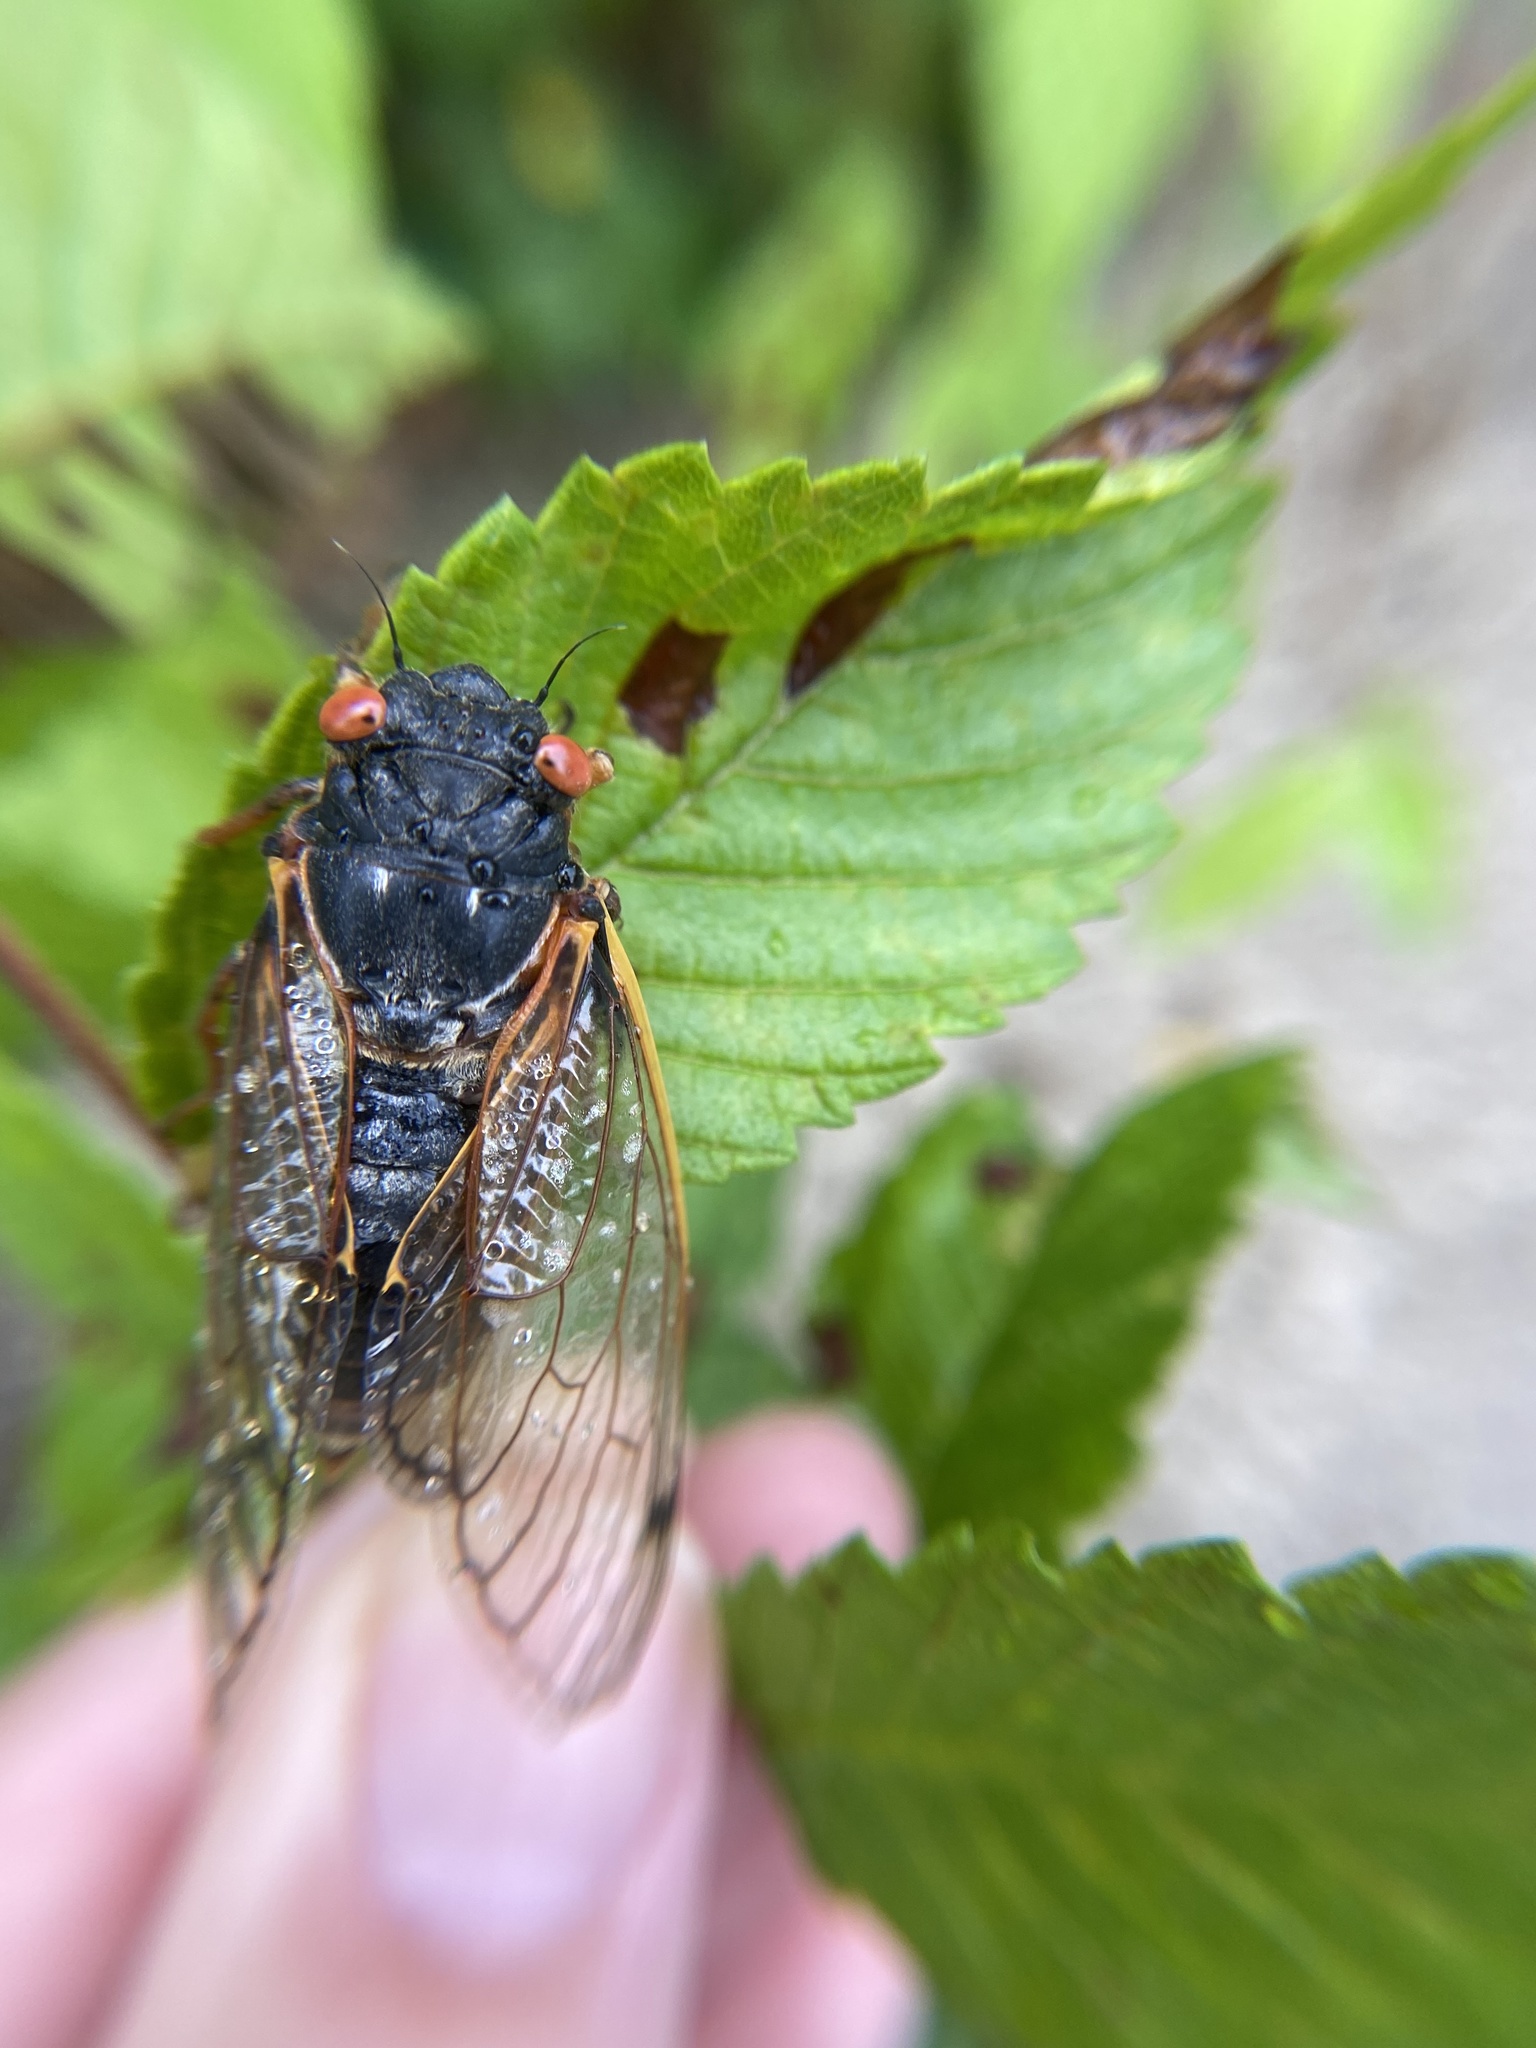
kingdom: Animalia
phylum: Arthropoda
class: Insecta
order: Hemiptera
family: Cicadidae
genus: Magicicada
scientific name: Magicicada septendecim
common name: Periodical cicada
